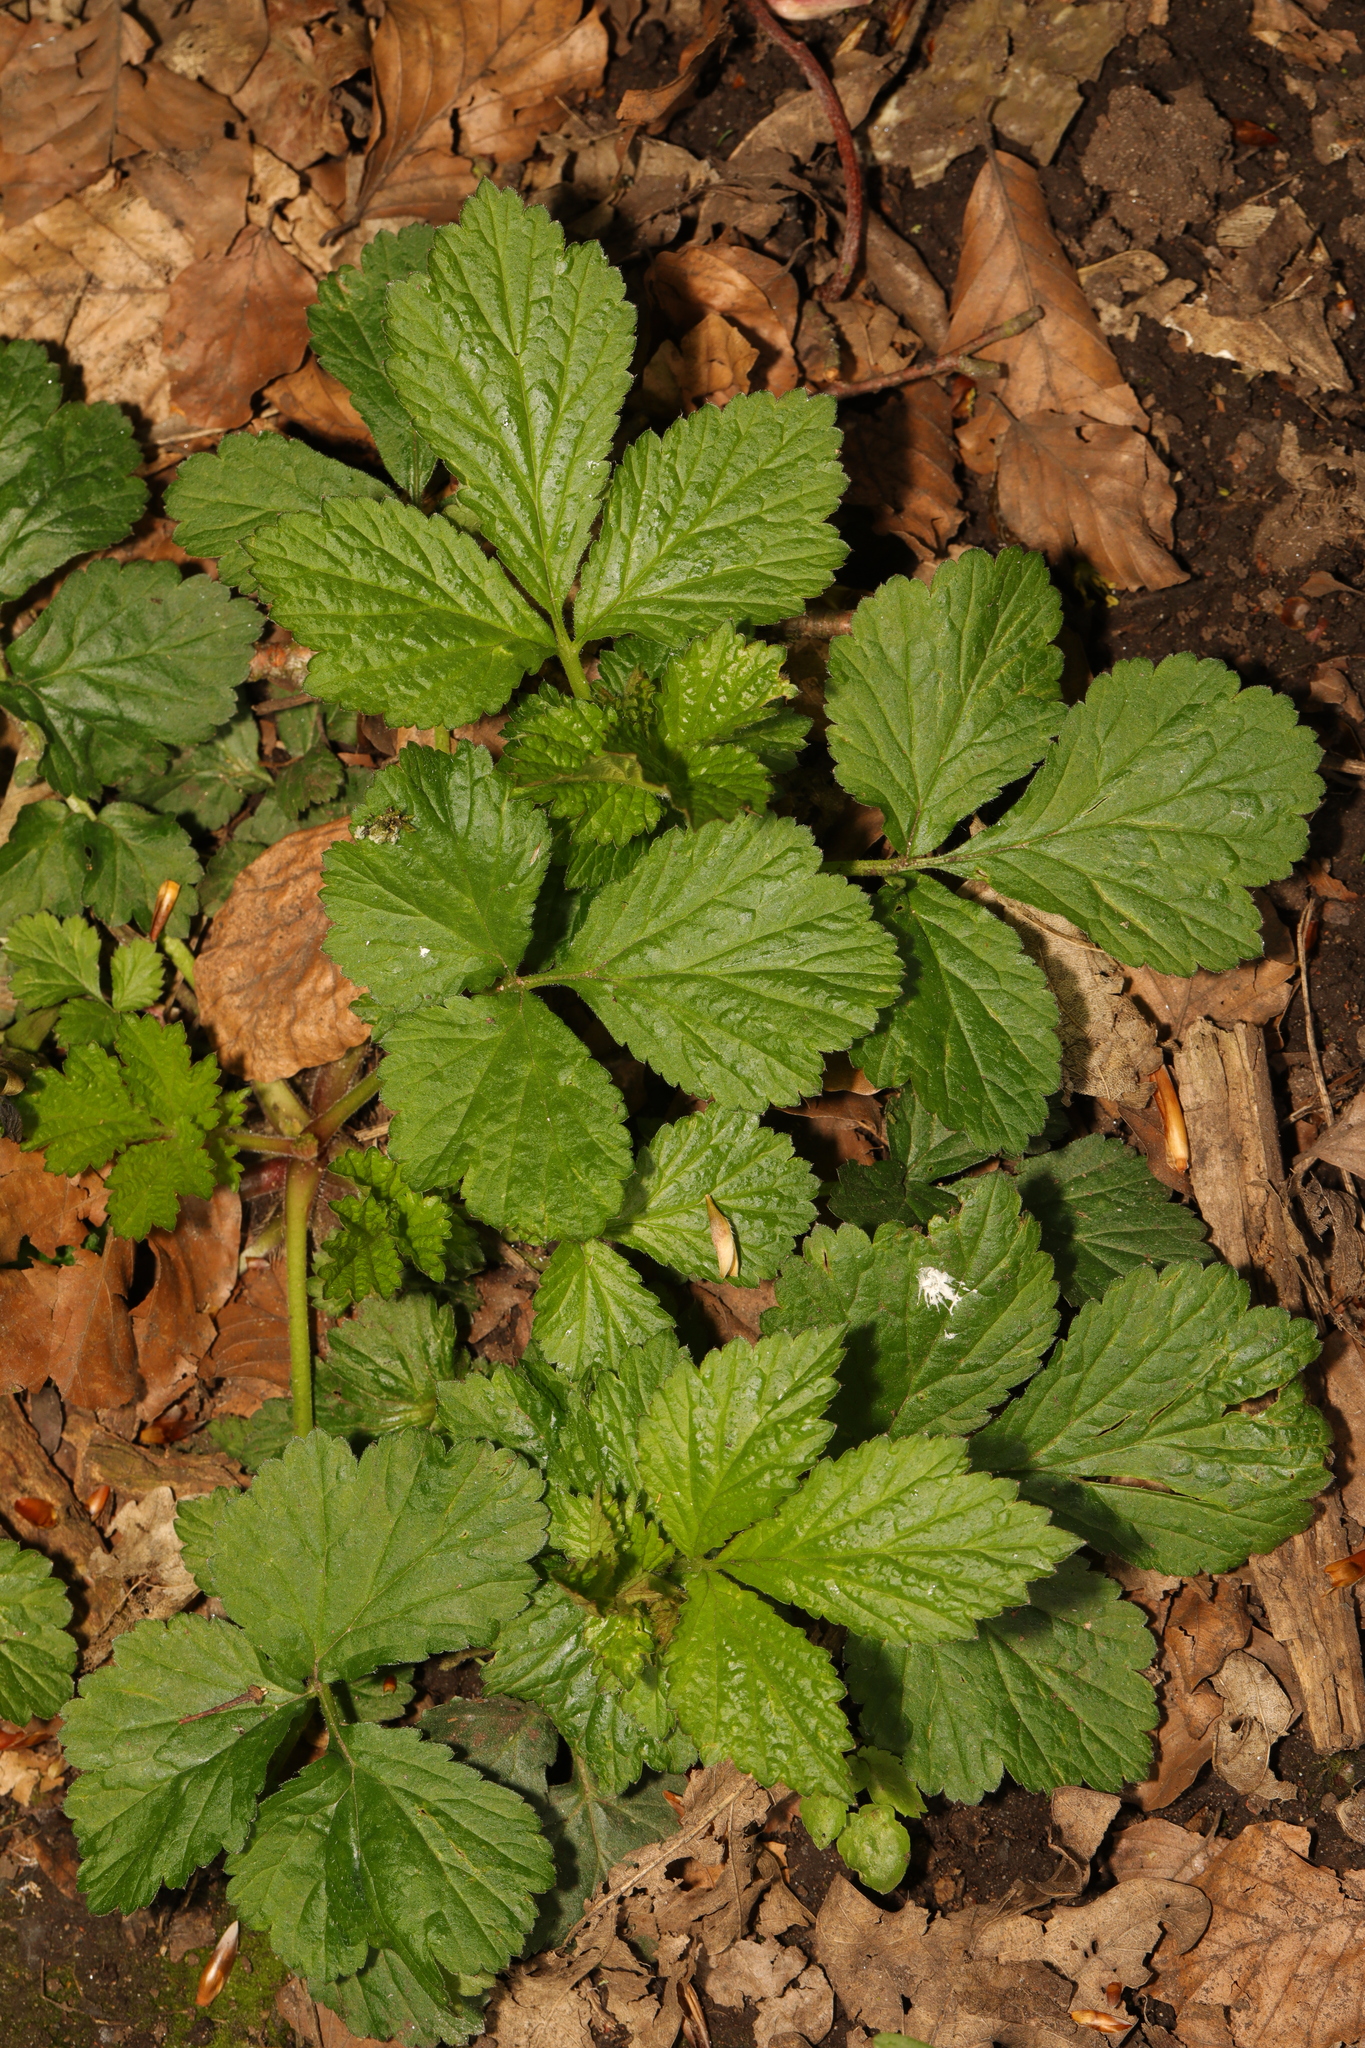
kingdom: Plantae
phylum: Tracheophyta
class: Magnoliopsida
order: Rosales
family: Rosaceae
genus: Geum
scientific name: Geum urbanum
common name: Wood avens
